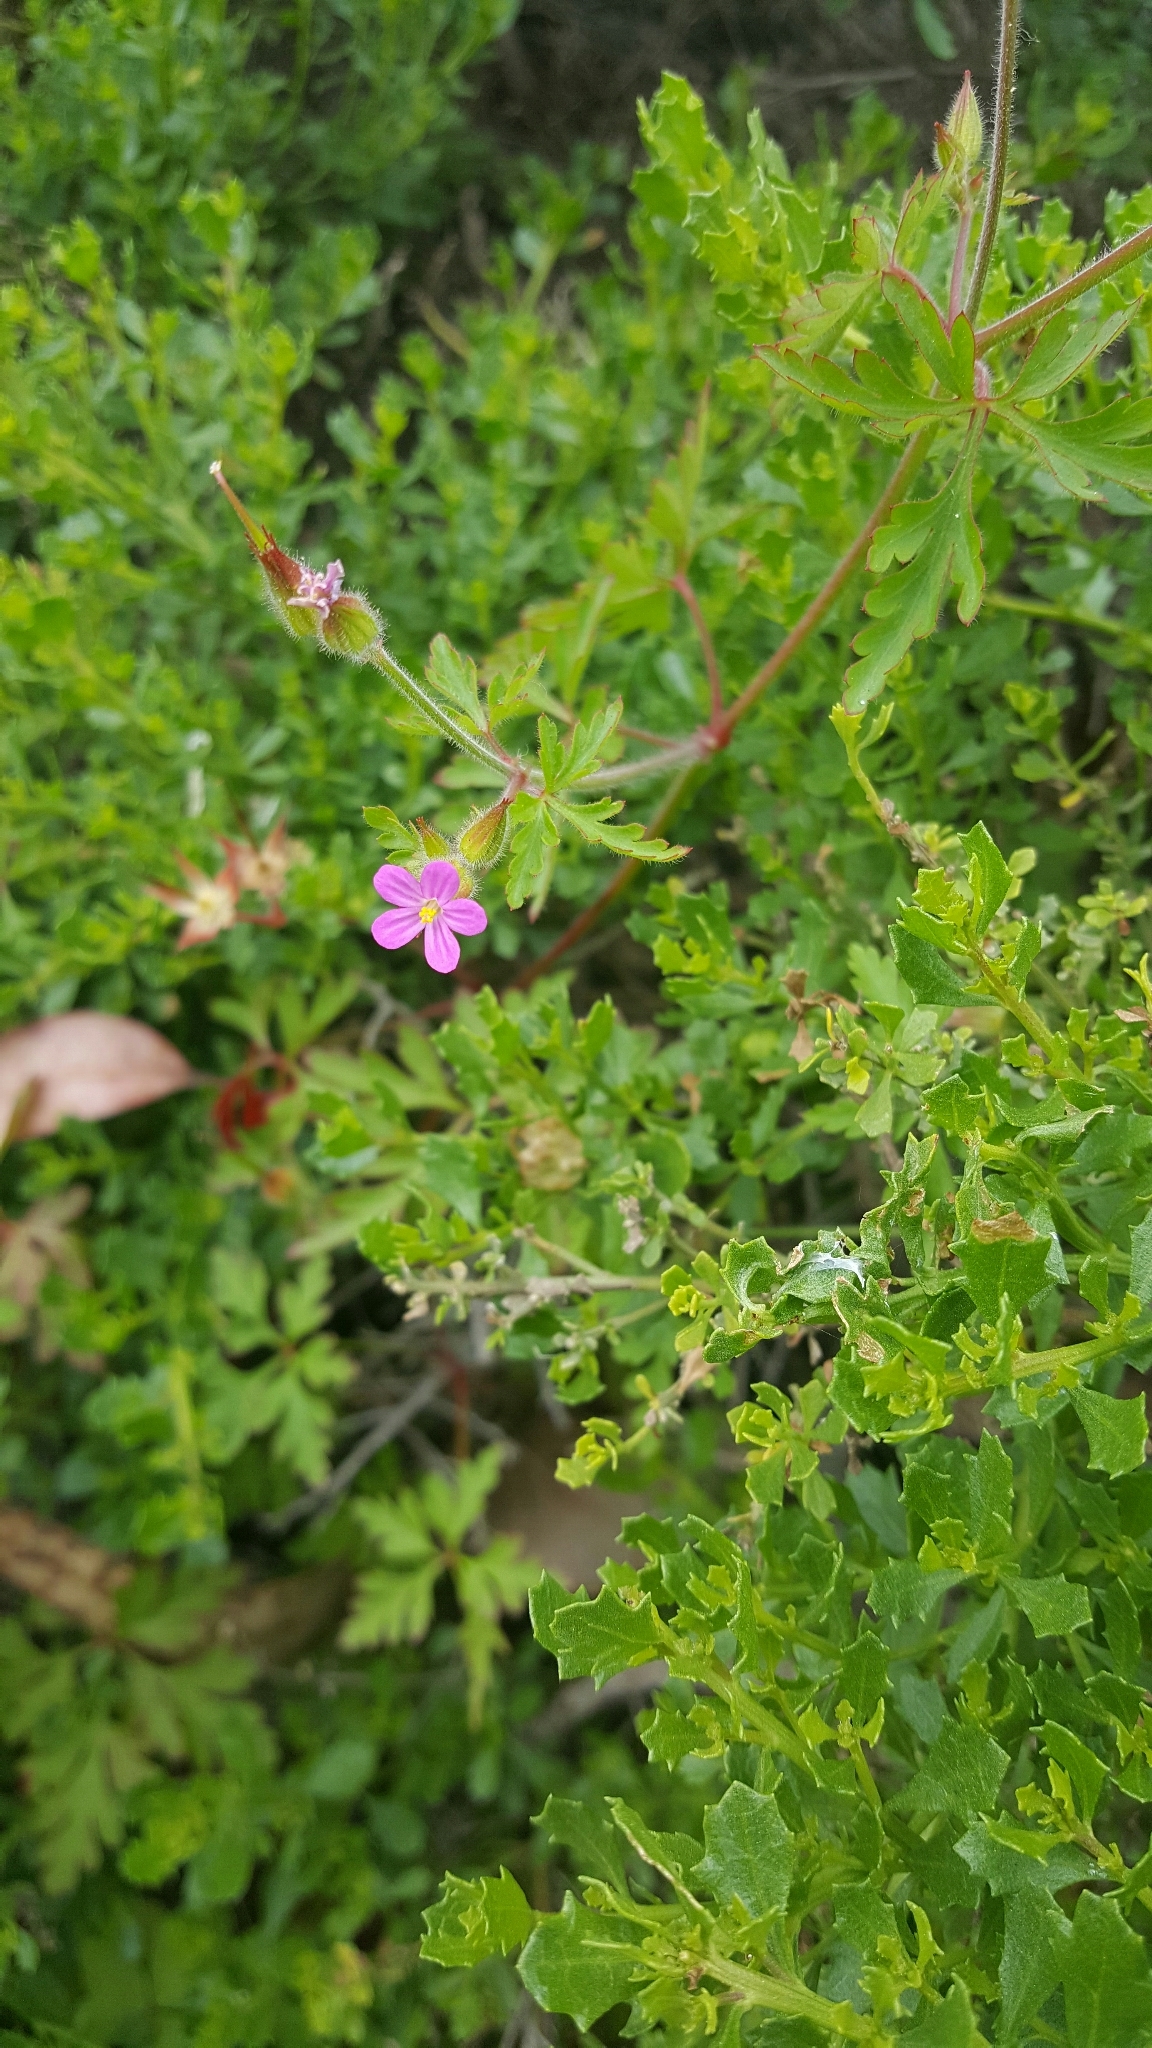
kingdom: Plantae
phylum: Tracheophyta
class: Magnoliopsida
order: Geraniales
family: Geraniaceae
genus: Geranium
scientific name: Geranium purpureum
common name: Little-robin
